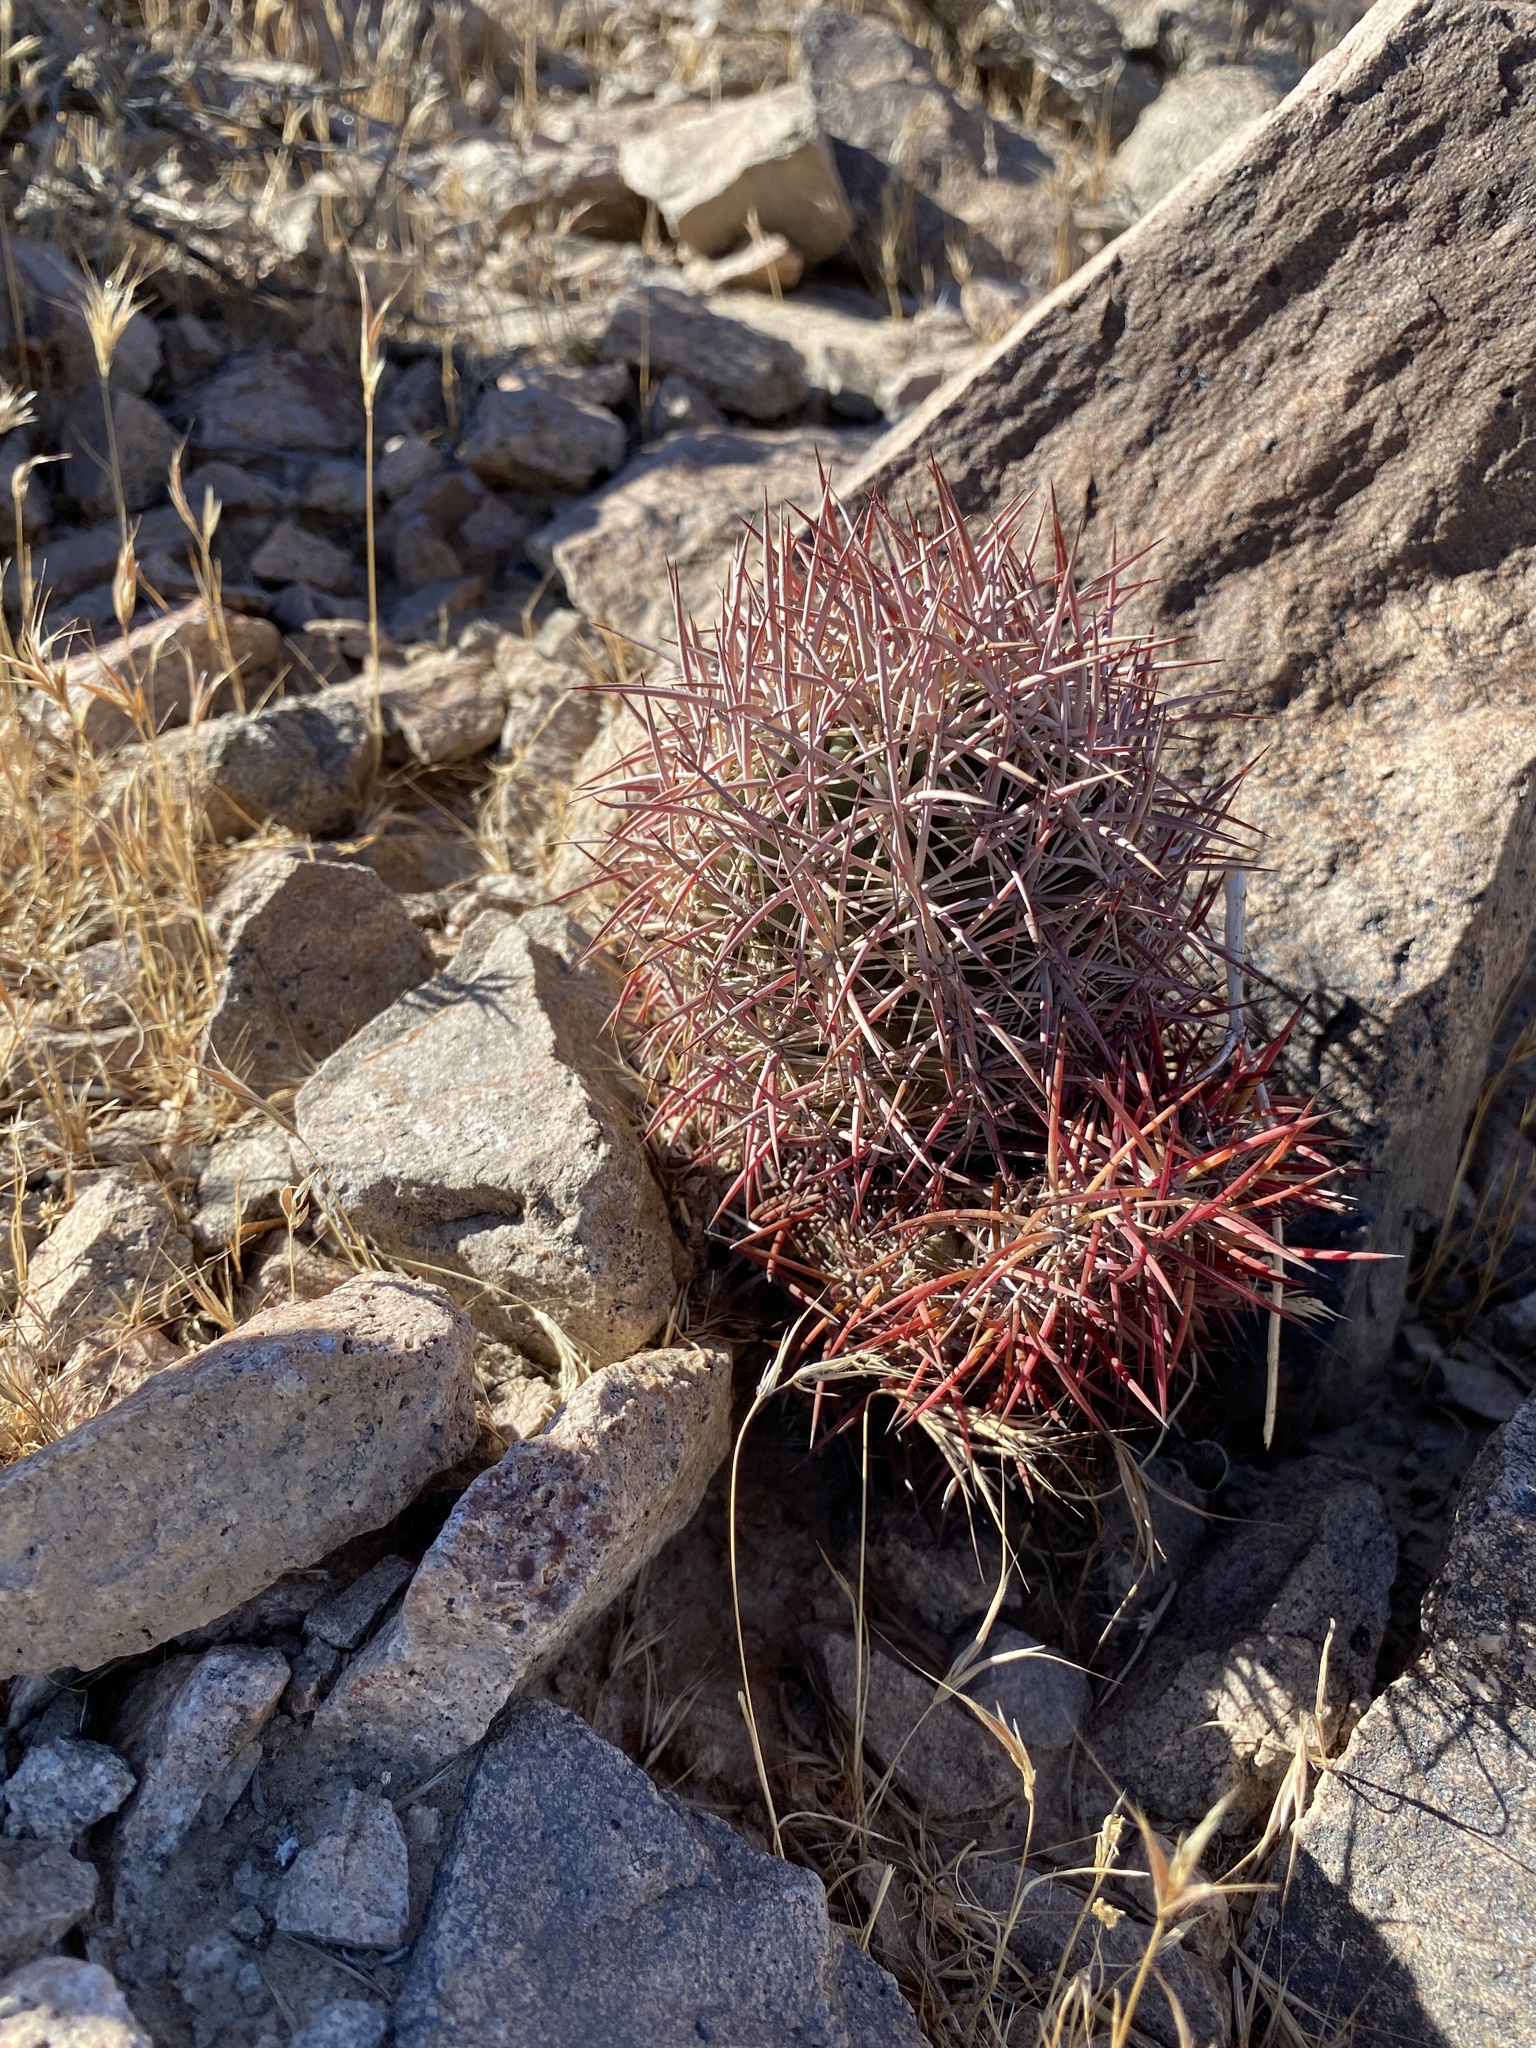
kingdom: Plantae
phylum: Tracheophyta
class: Magnoliopsida
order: Caryophyllales
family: Cactaceae
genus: Sclerocactus
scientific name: Sclerocactus johnsonii
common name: Eight-spine fishhook cactus
